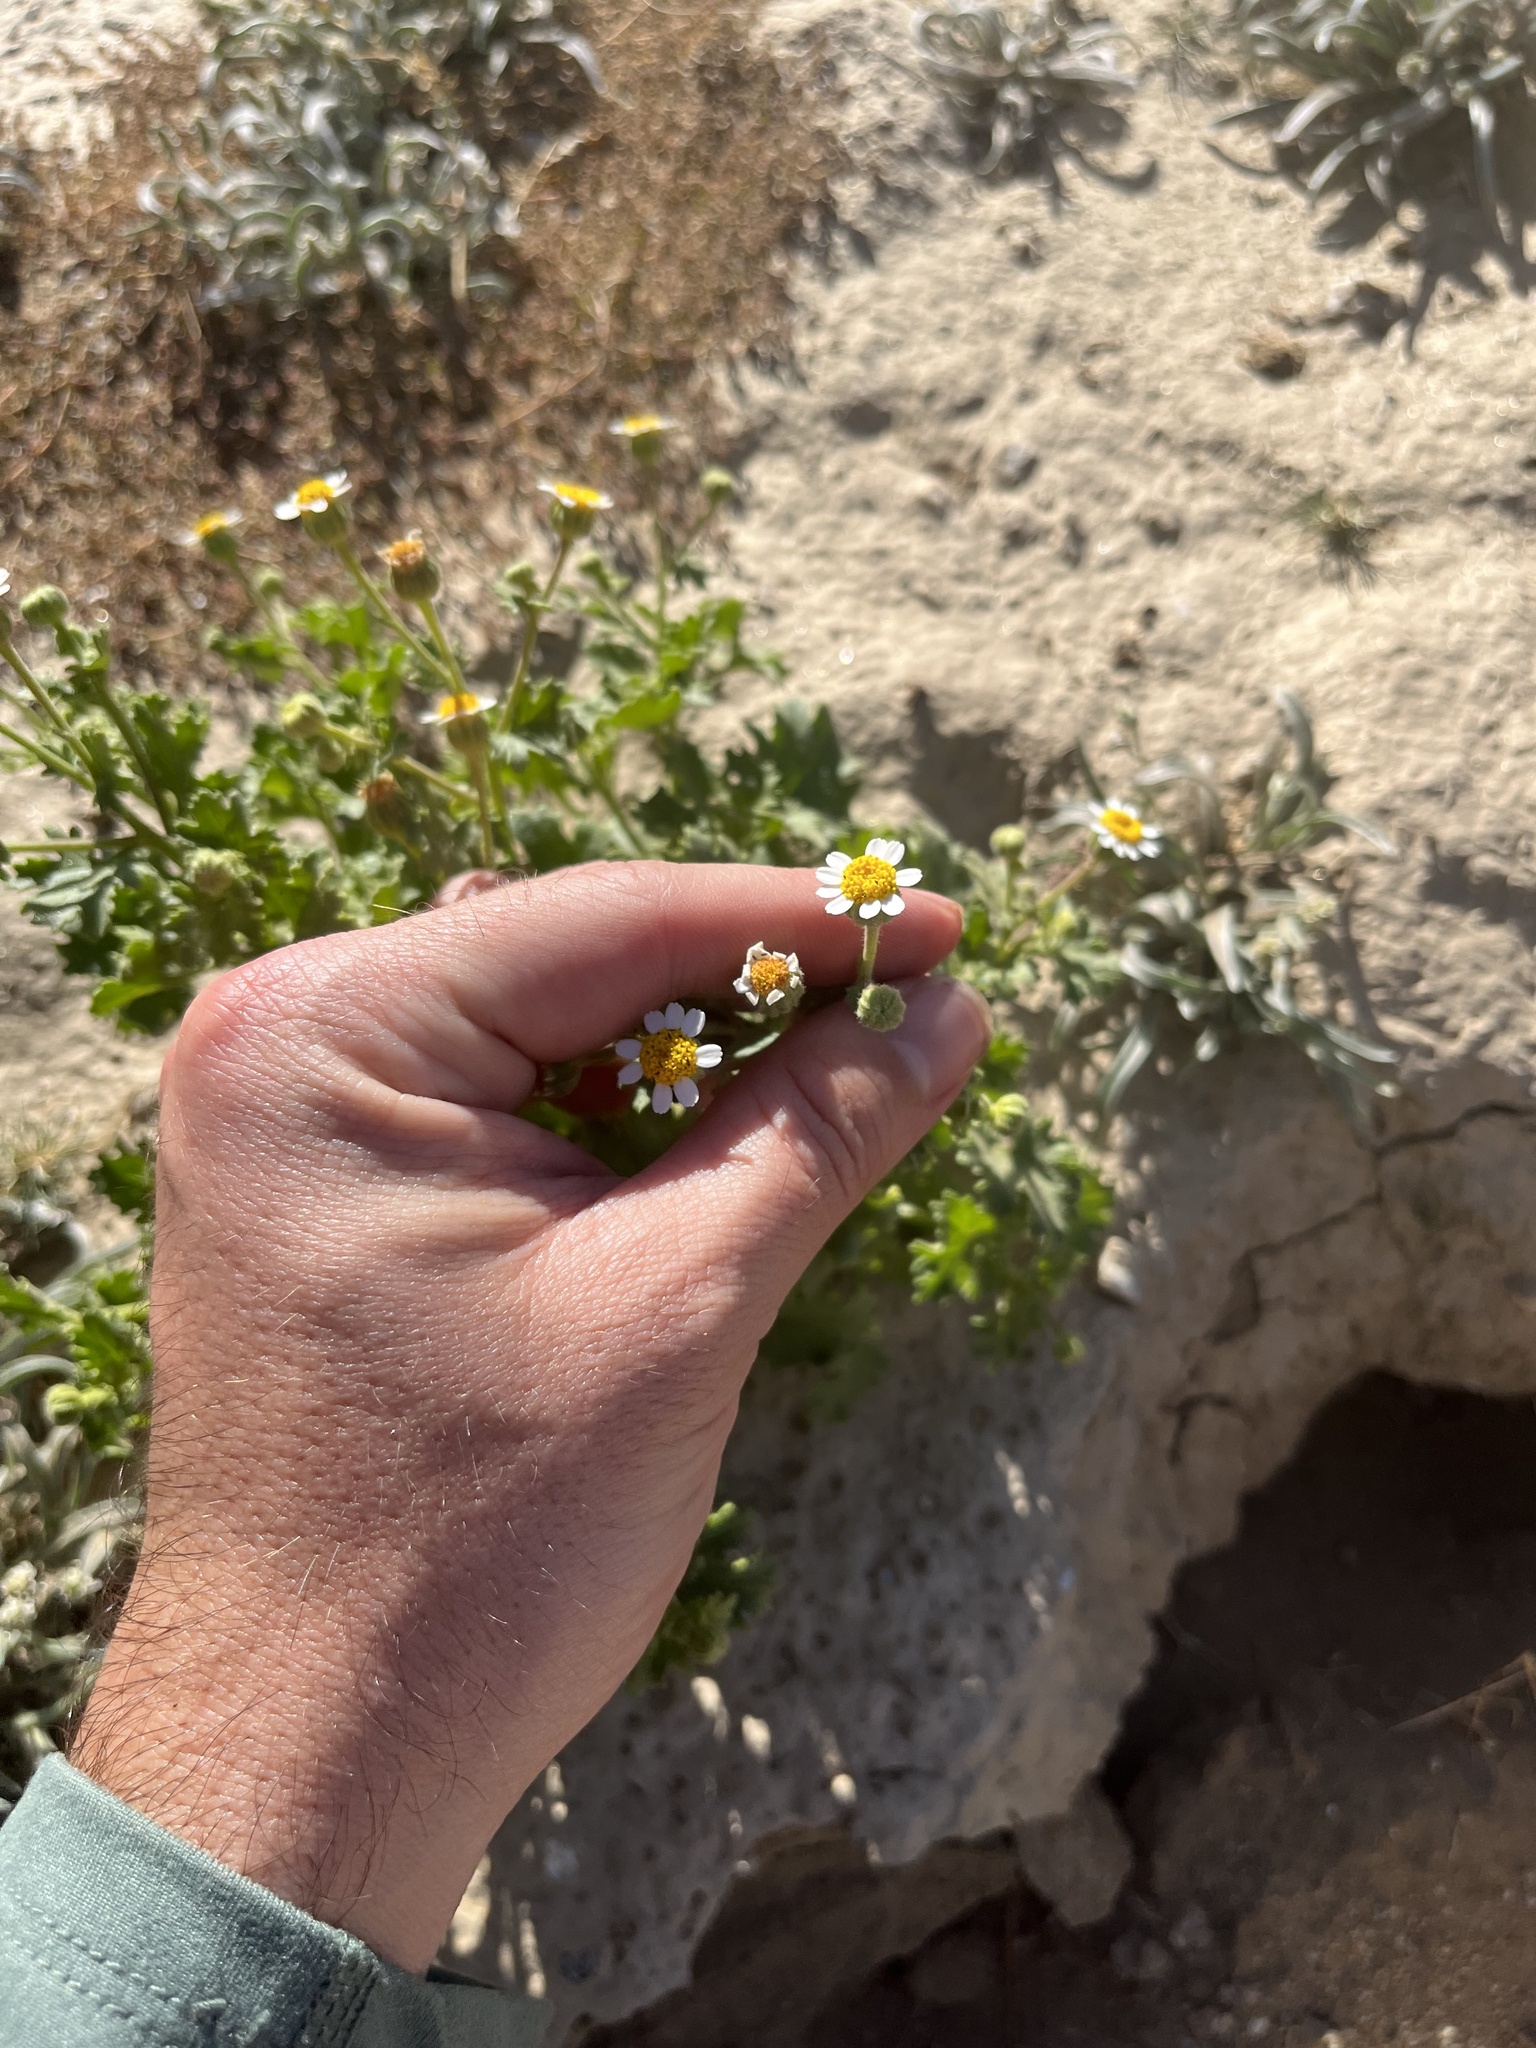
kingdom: Plantae
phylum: Tracheophyta
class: Magnoliopsida
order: Asterales
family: Asteraceae
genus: Laphamia
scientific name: Laphamia emoryi
